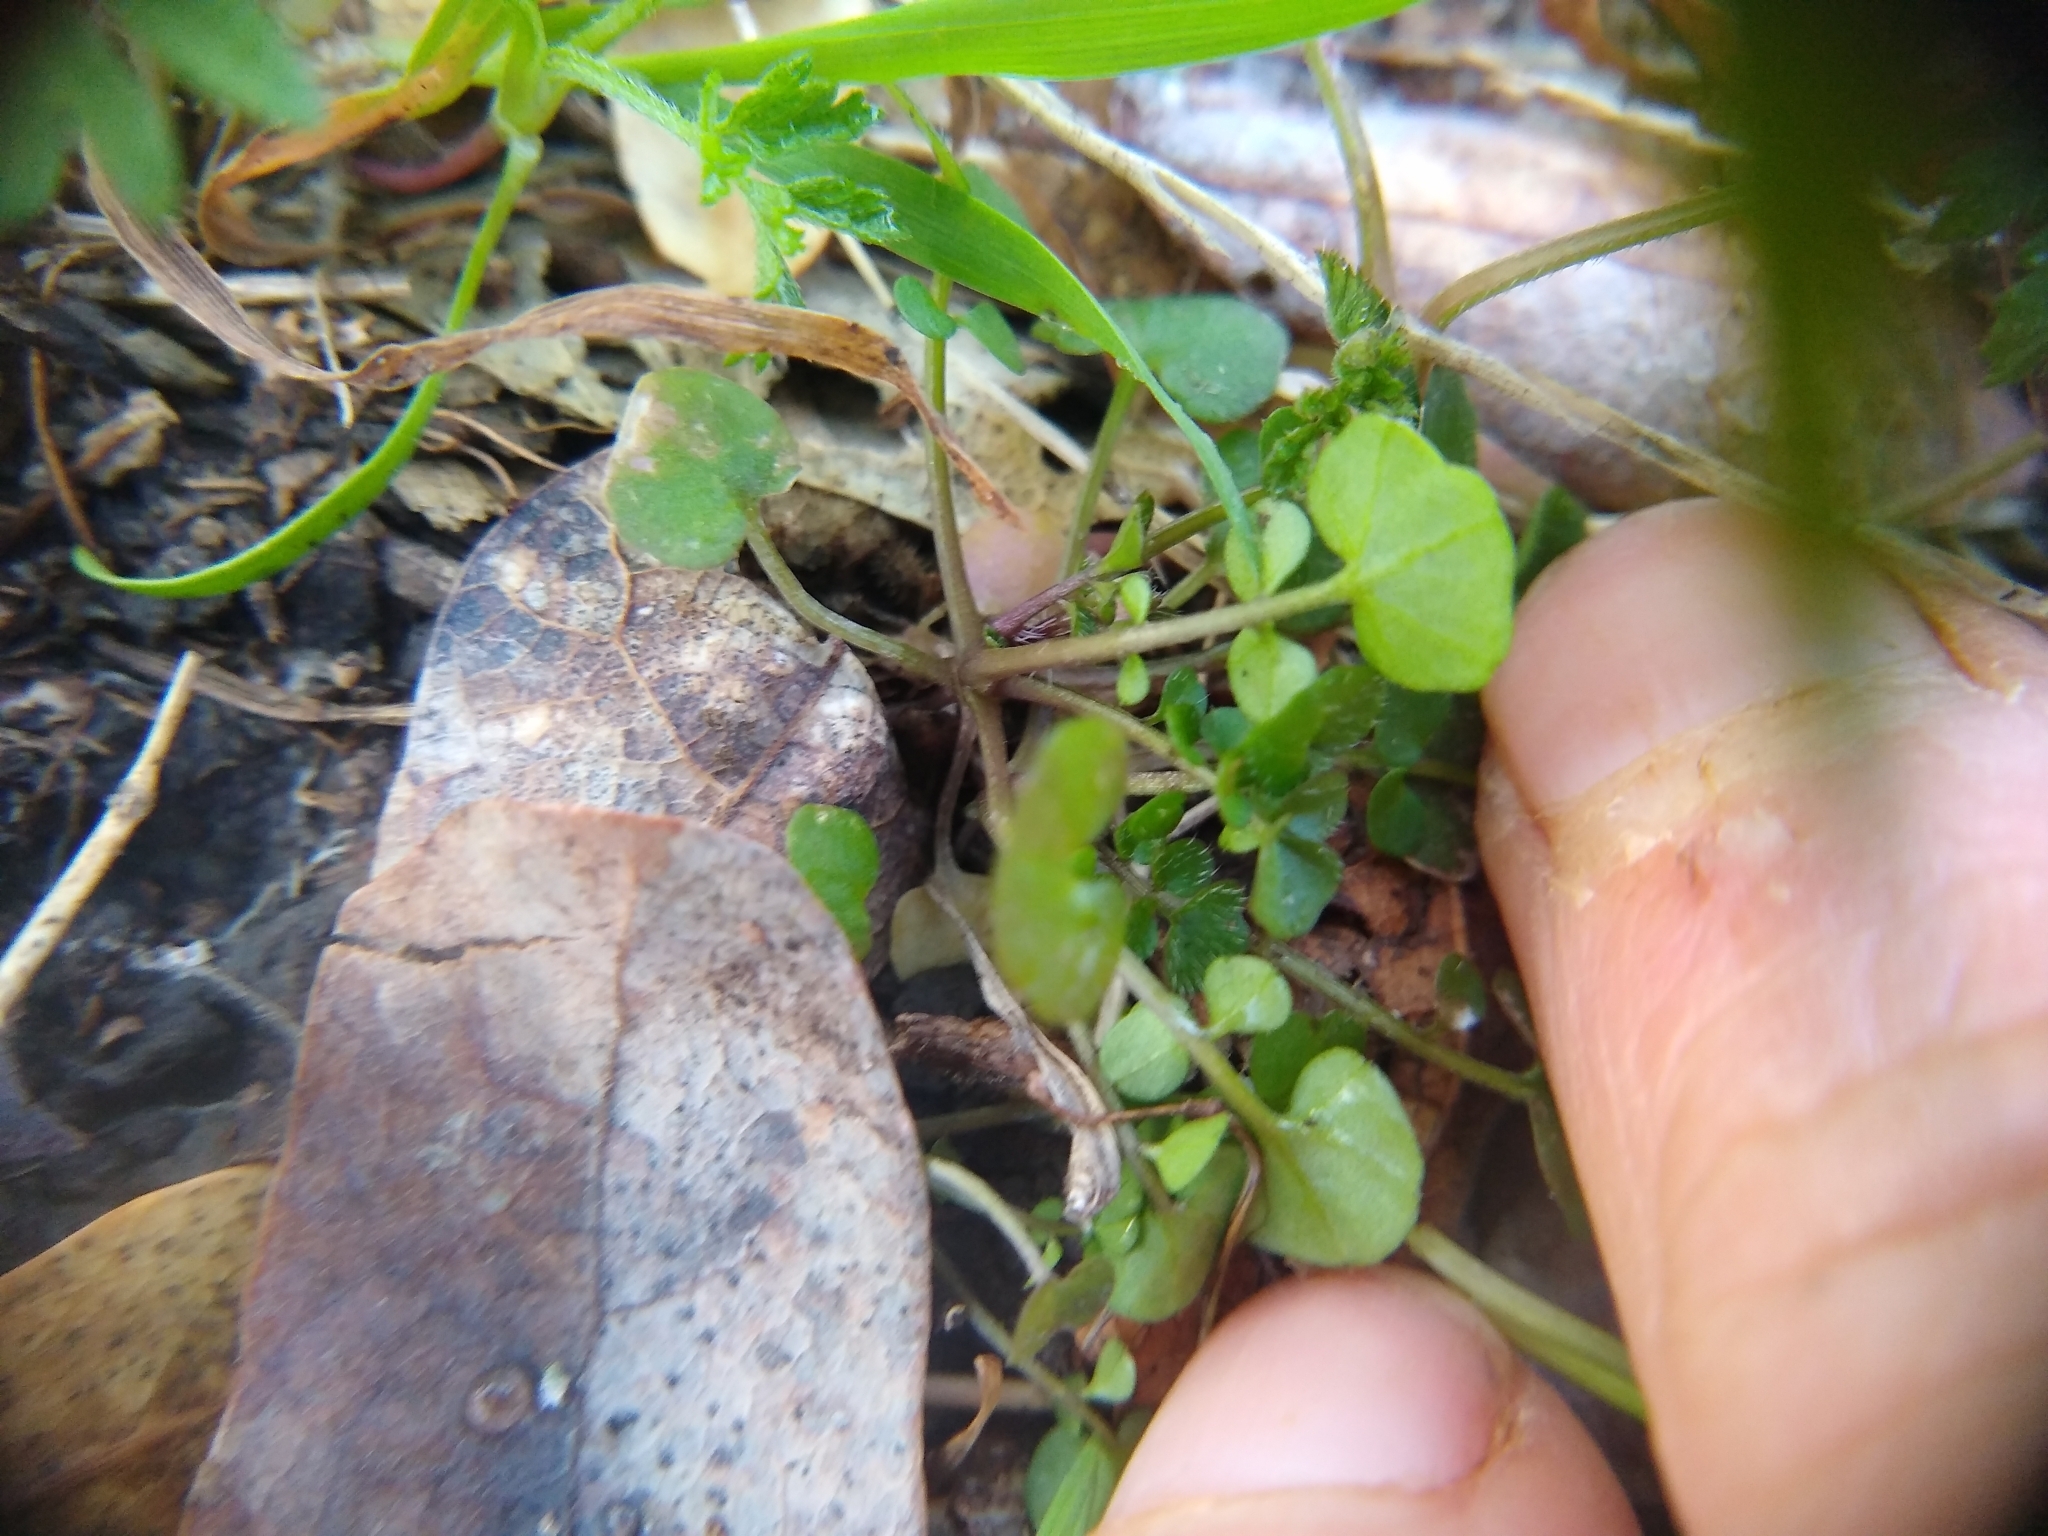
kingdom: Plantae
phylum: Tracheophyta
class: Magnoliopsida
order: Brassicales
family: Brassicaceae
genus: Cardamine
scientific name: Cardamine hirsuta
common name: Hairy bittercress
